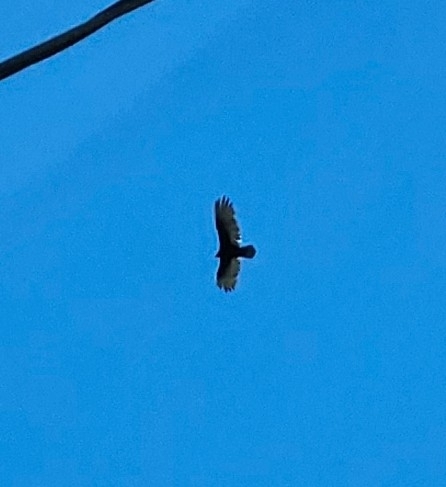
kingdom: Animalia
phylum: Chordata
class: Aves
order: Accipitriformes
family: Cathartidae
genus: Cathartes
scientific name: Cathartes aura
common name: Turkey vulture
